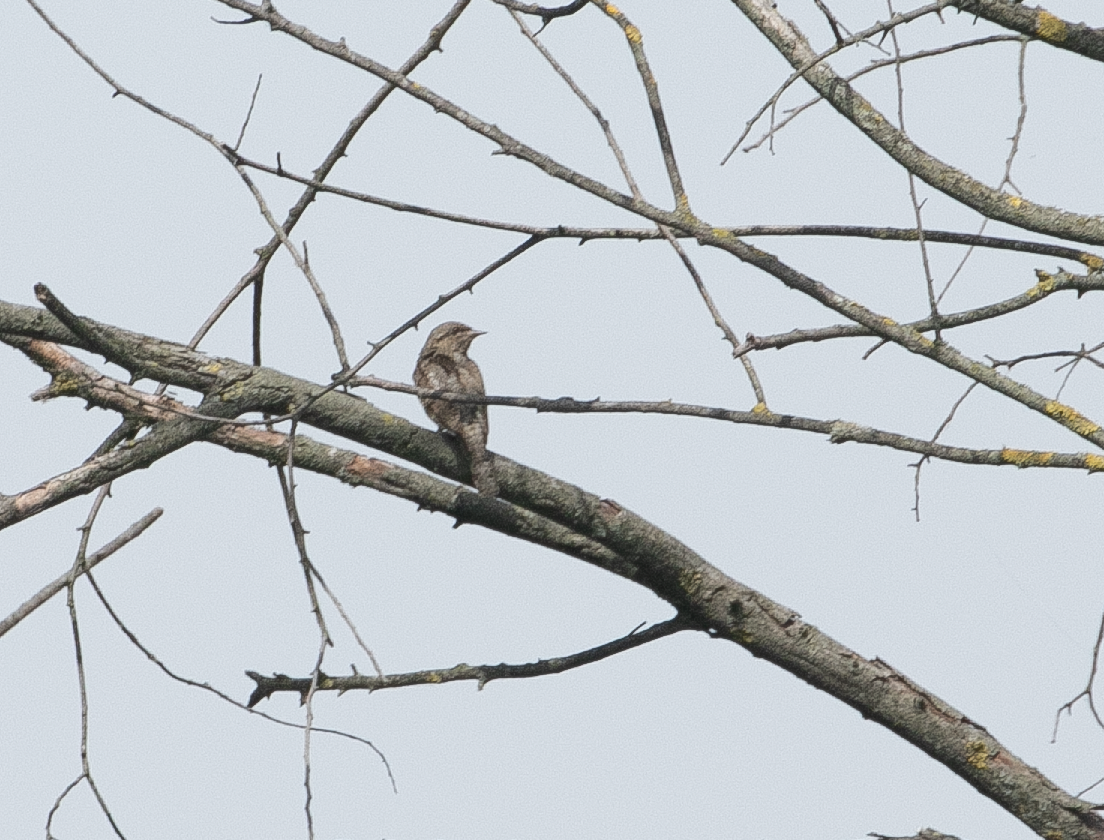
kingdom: Animalia
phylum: Chordata
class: Aves
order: Piciformes
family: Picidae
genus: Jynx
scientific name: Jynx torquilla
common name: Eurasian wryneck
